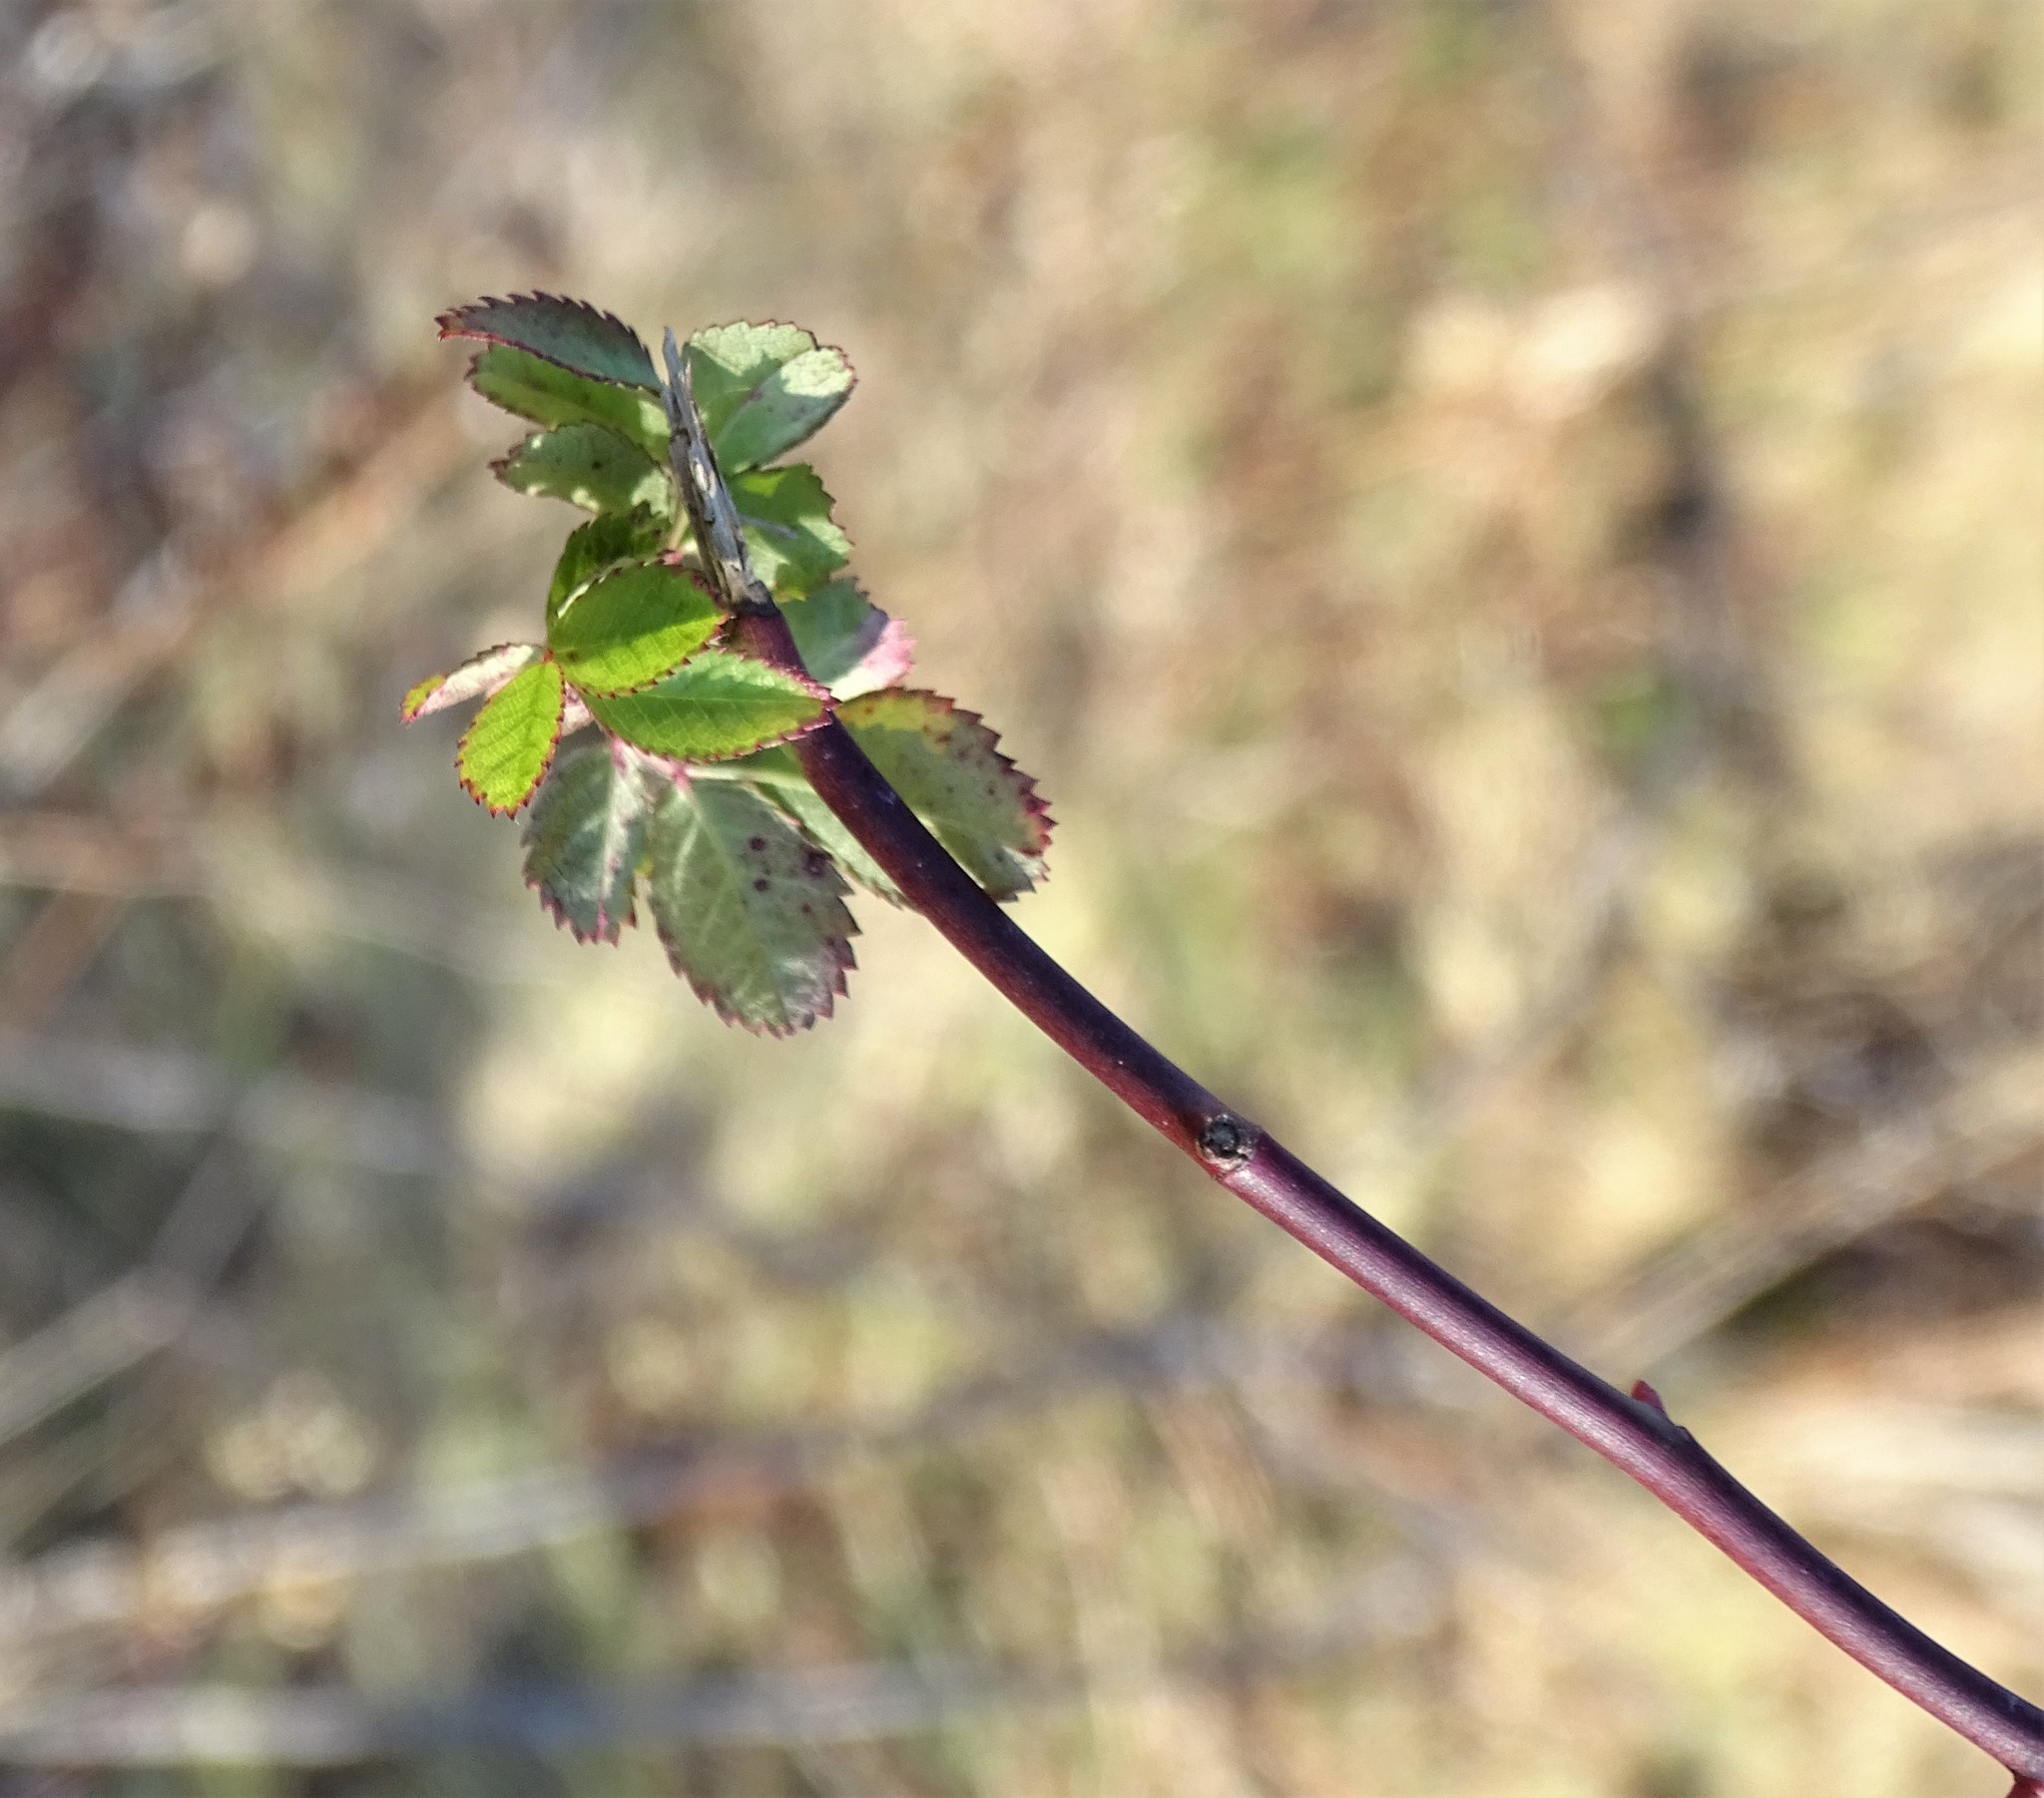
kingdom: Plantae
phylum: Tracheophyta
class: Magnoliopsida
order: Rosales
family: Rosaceae
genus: Rosa
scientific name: Rosa multiflora
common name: Multiflora rose
